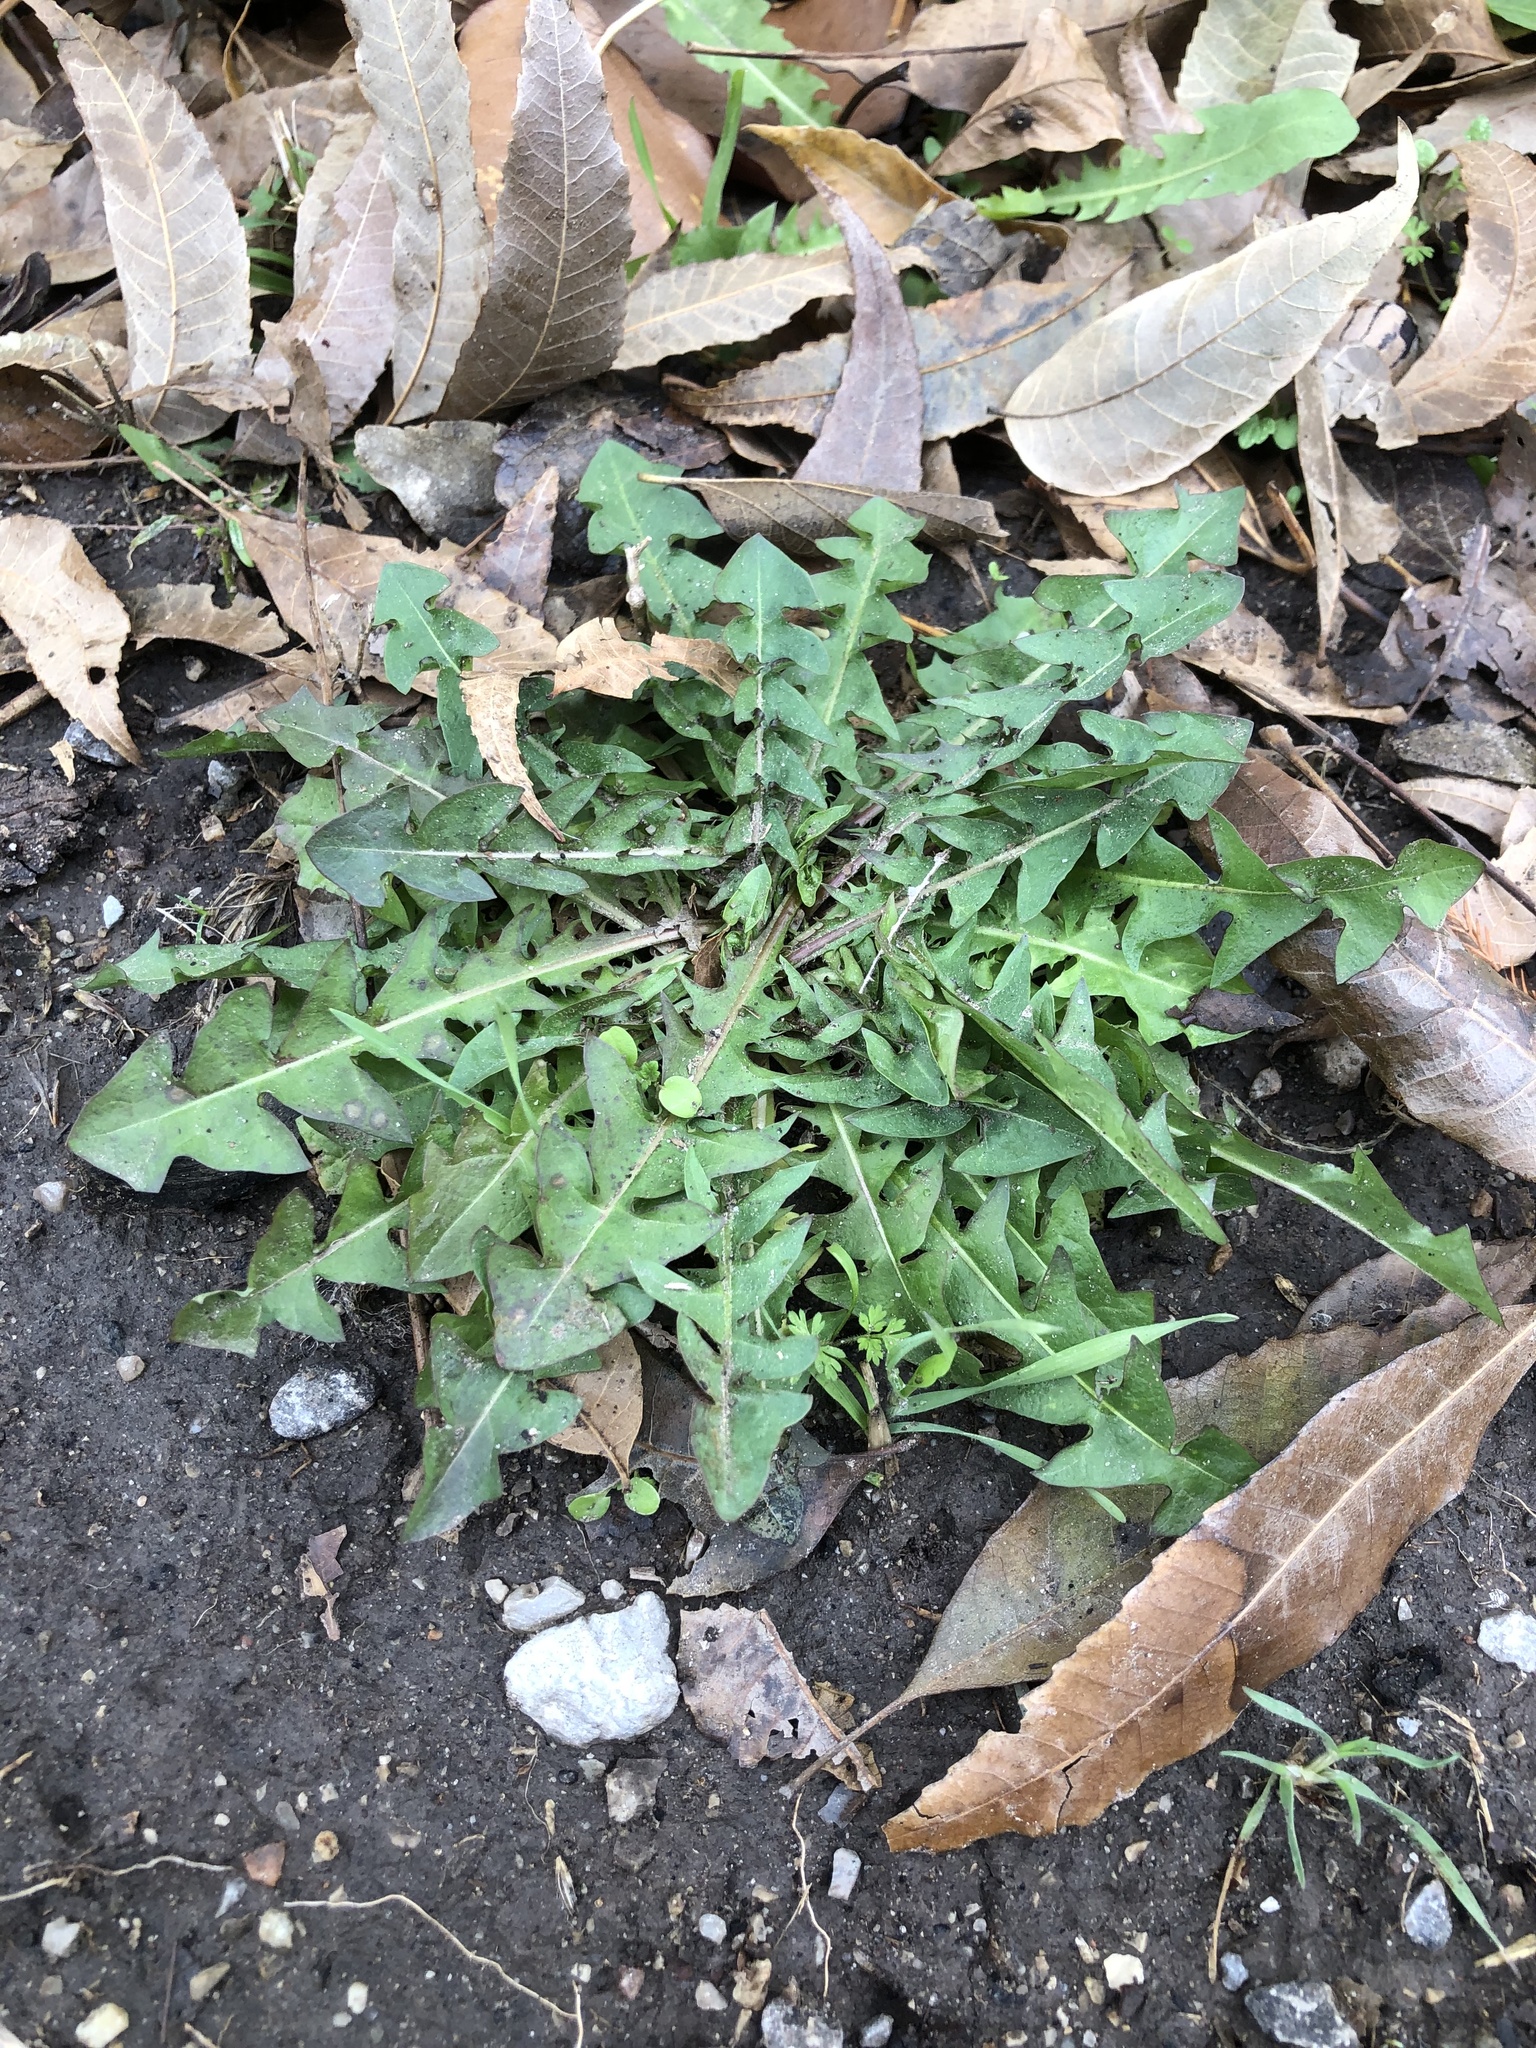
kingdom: Plantae
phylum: Tracheophyta
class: Magnoliopsida
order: Asterales
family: Asteraceae
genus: Taraxacum
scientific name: Taraxacum
